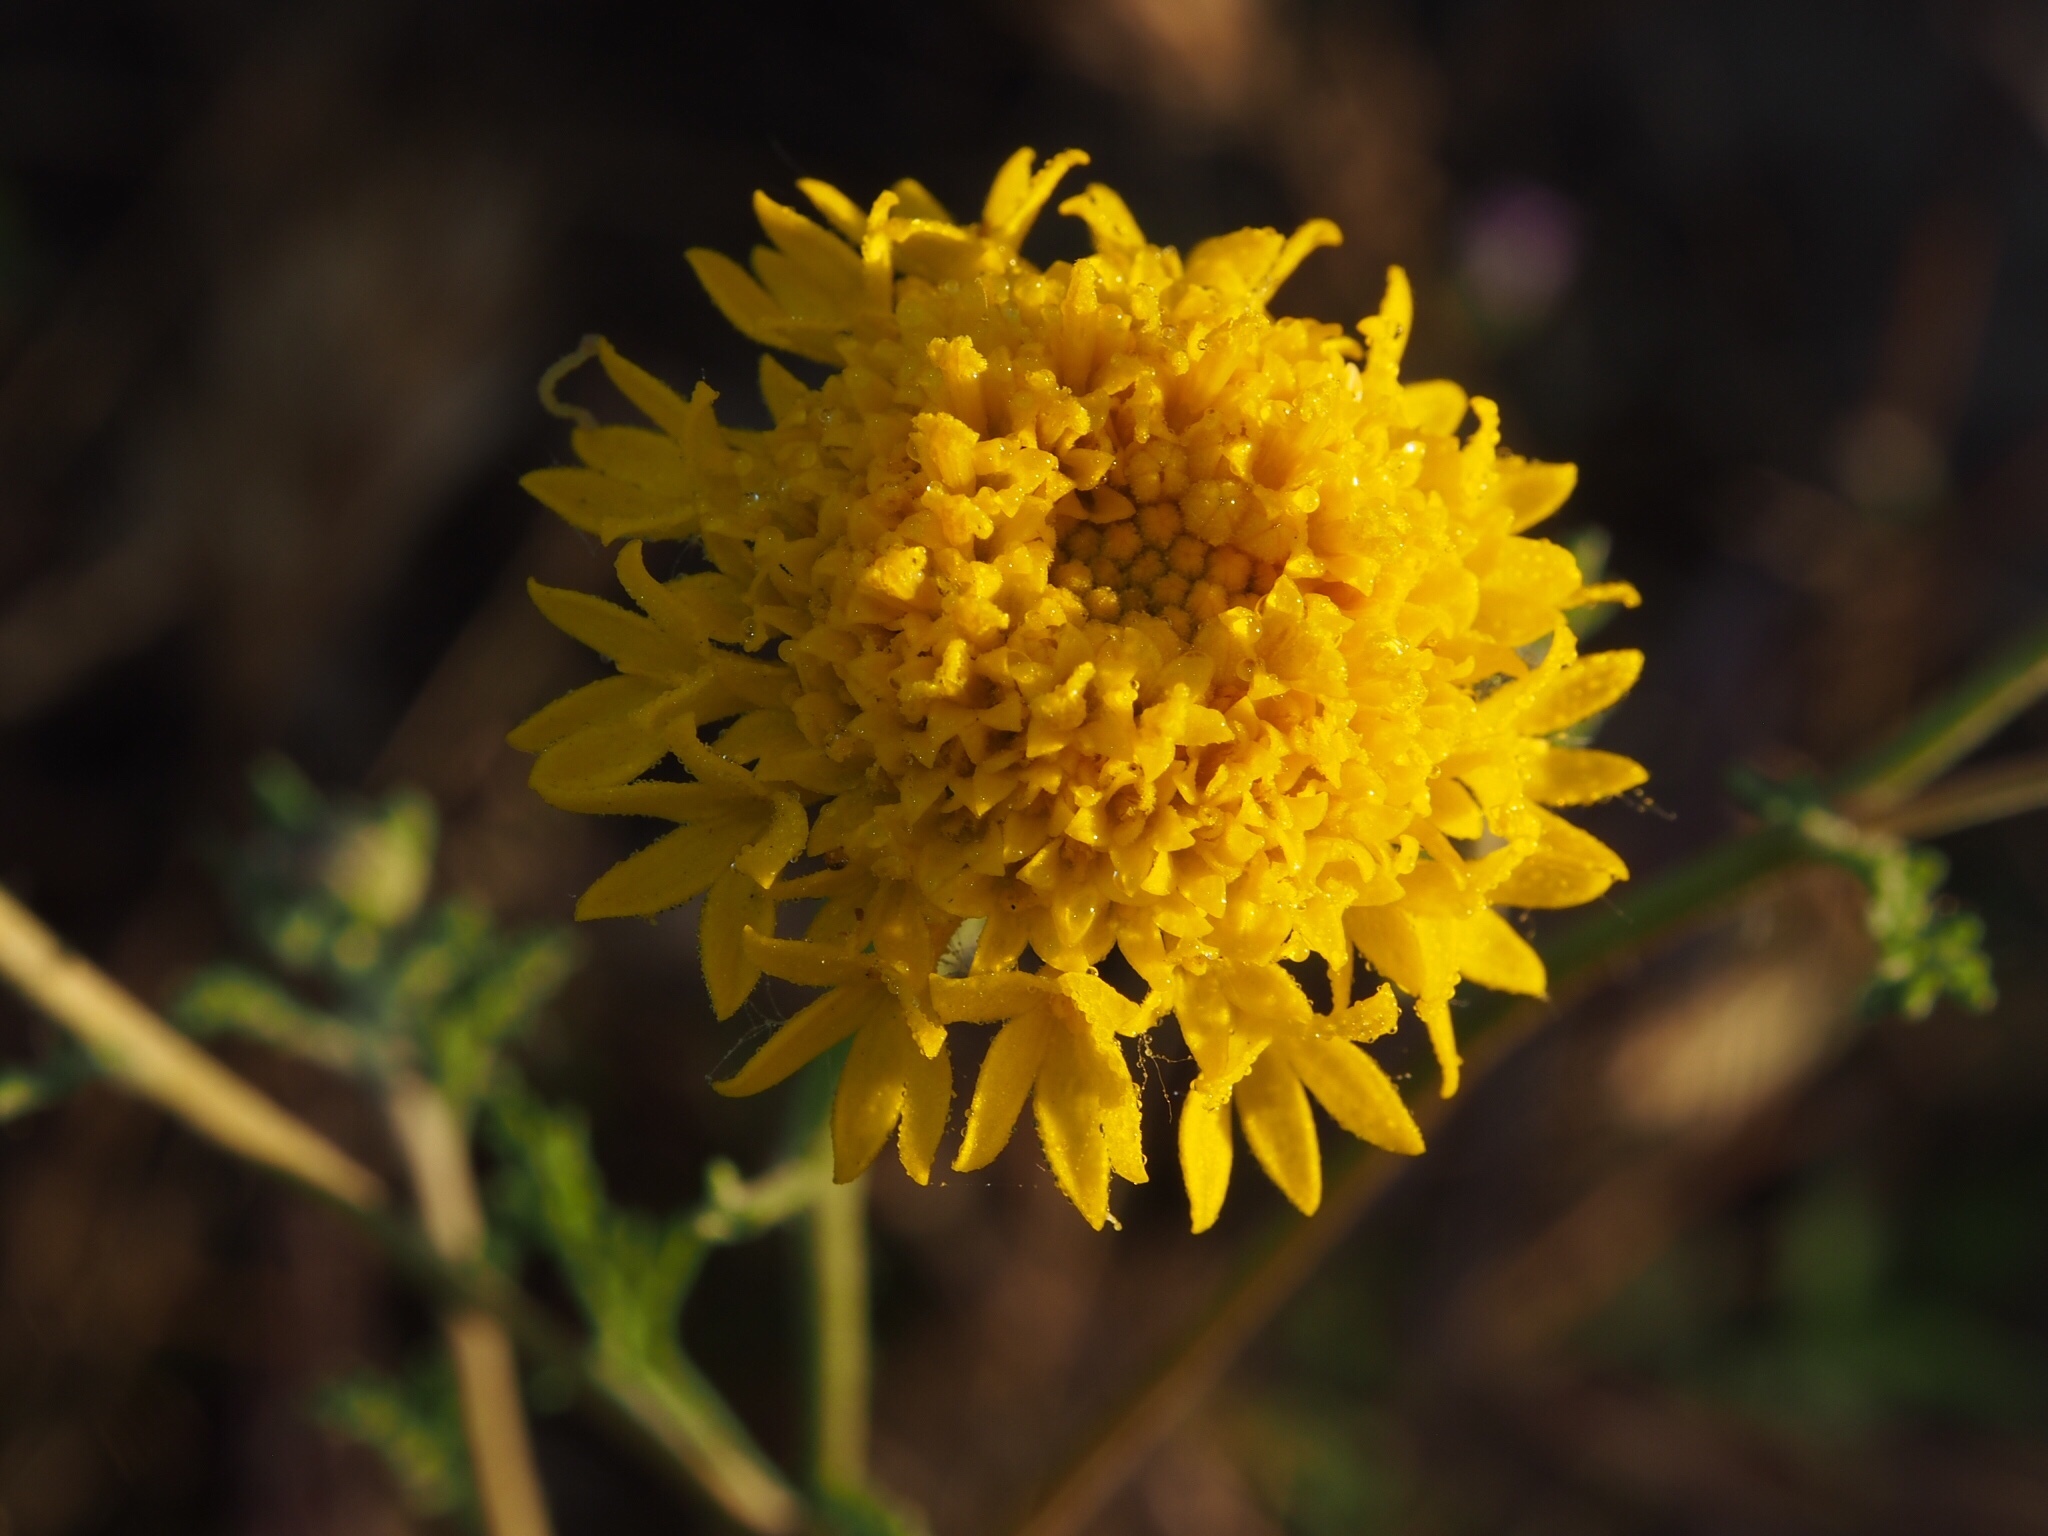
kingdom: Plantae
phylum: Tracheophyta
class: Magnoliopsida
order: Asterales
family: Asteraceae
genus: Chaenactis
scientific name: Chaenactis glabriuscula
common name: Yellow pincushion
